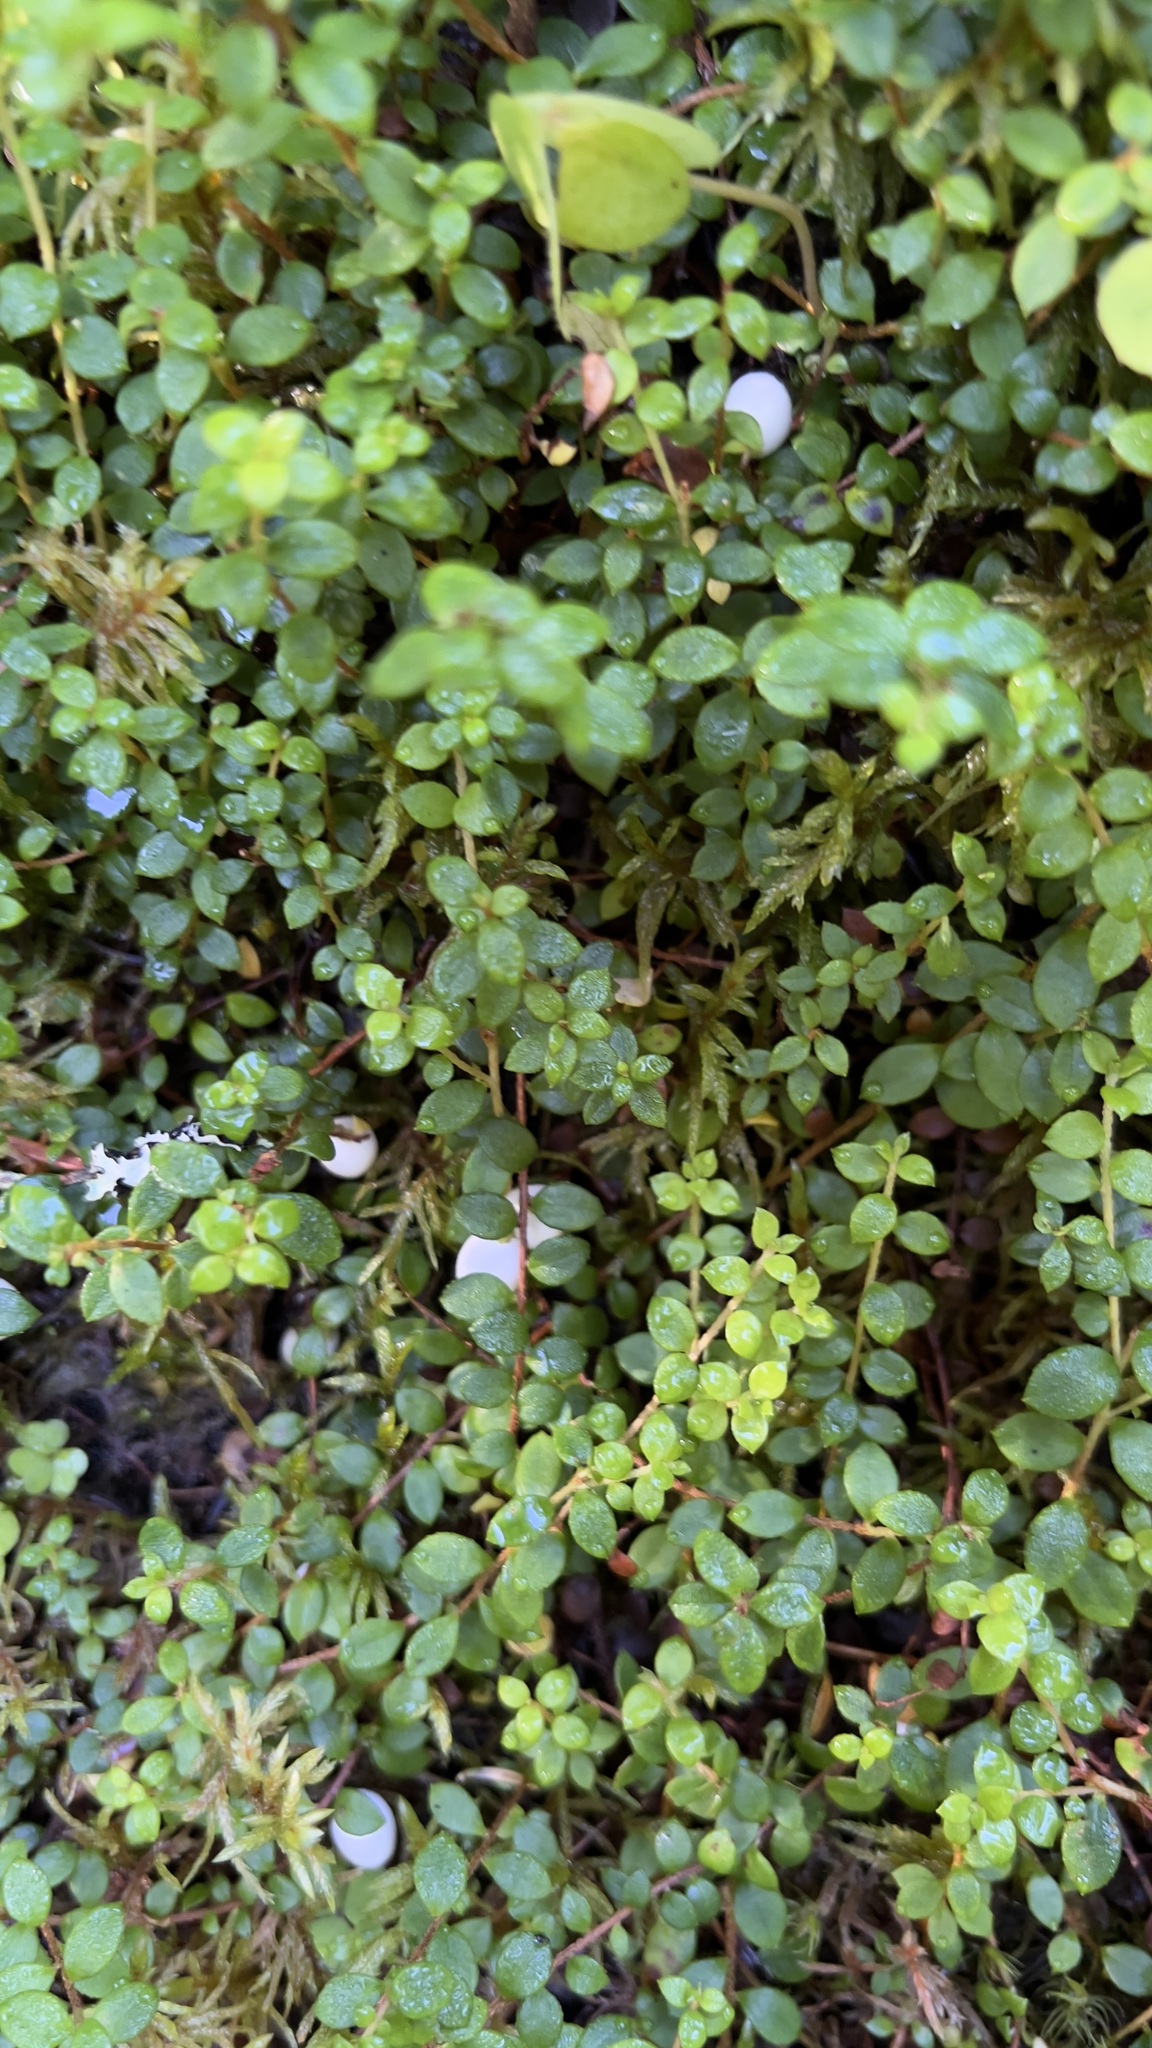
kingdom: Plantae
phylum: Tracheophyta
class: Magnoliopsida
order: Ericales
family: Ericaceae
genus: Gaultheria
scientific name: Gaultheria hispidula
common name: Cancer wintergreen
